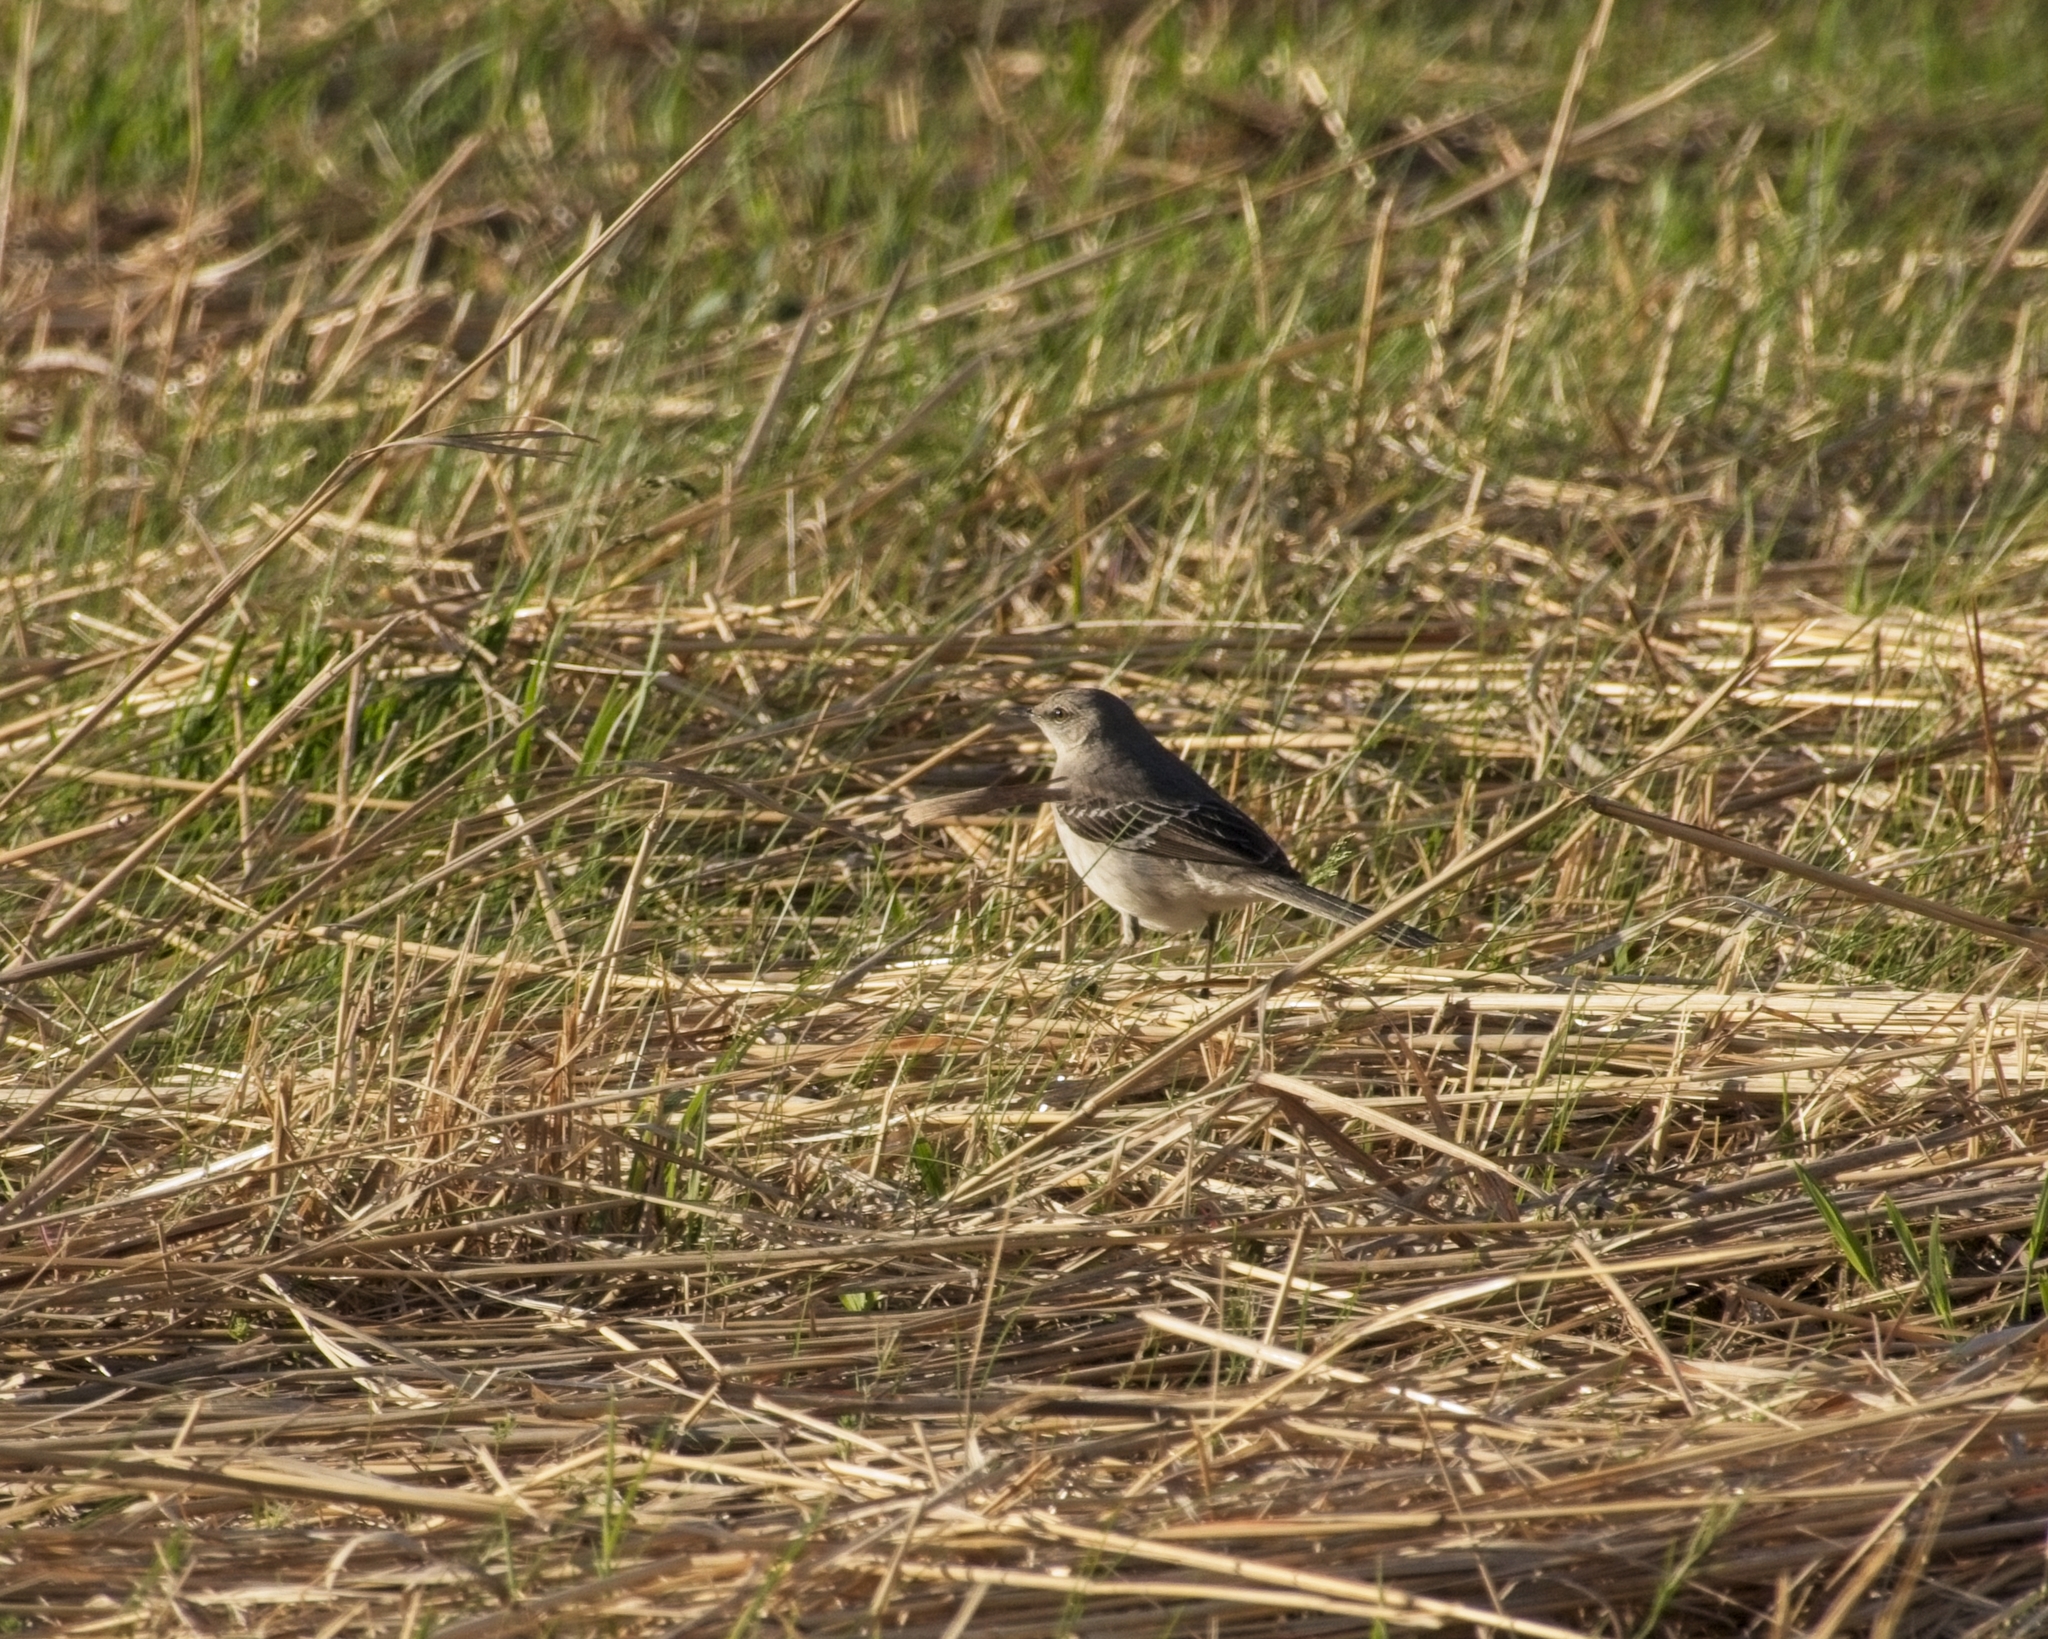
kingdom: Animalia
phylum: Chordata
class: Aves
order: Passeriformes
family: Mimidae
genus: Mimus
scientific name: Mimus polyglottos
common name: Northern mockingbird
